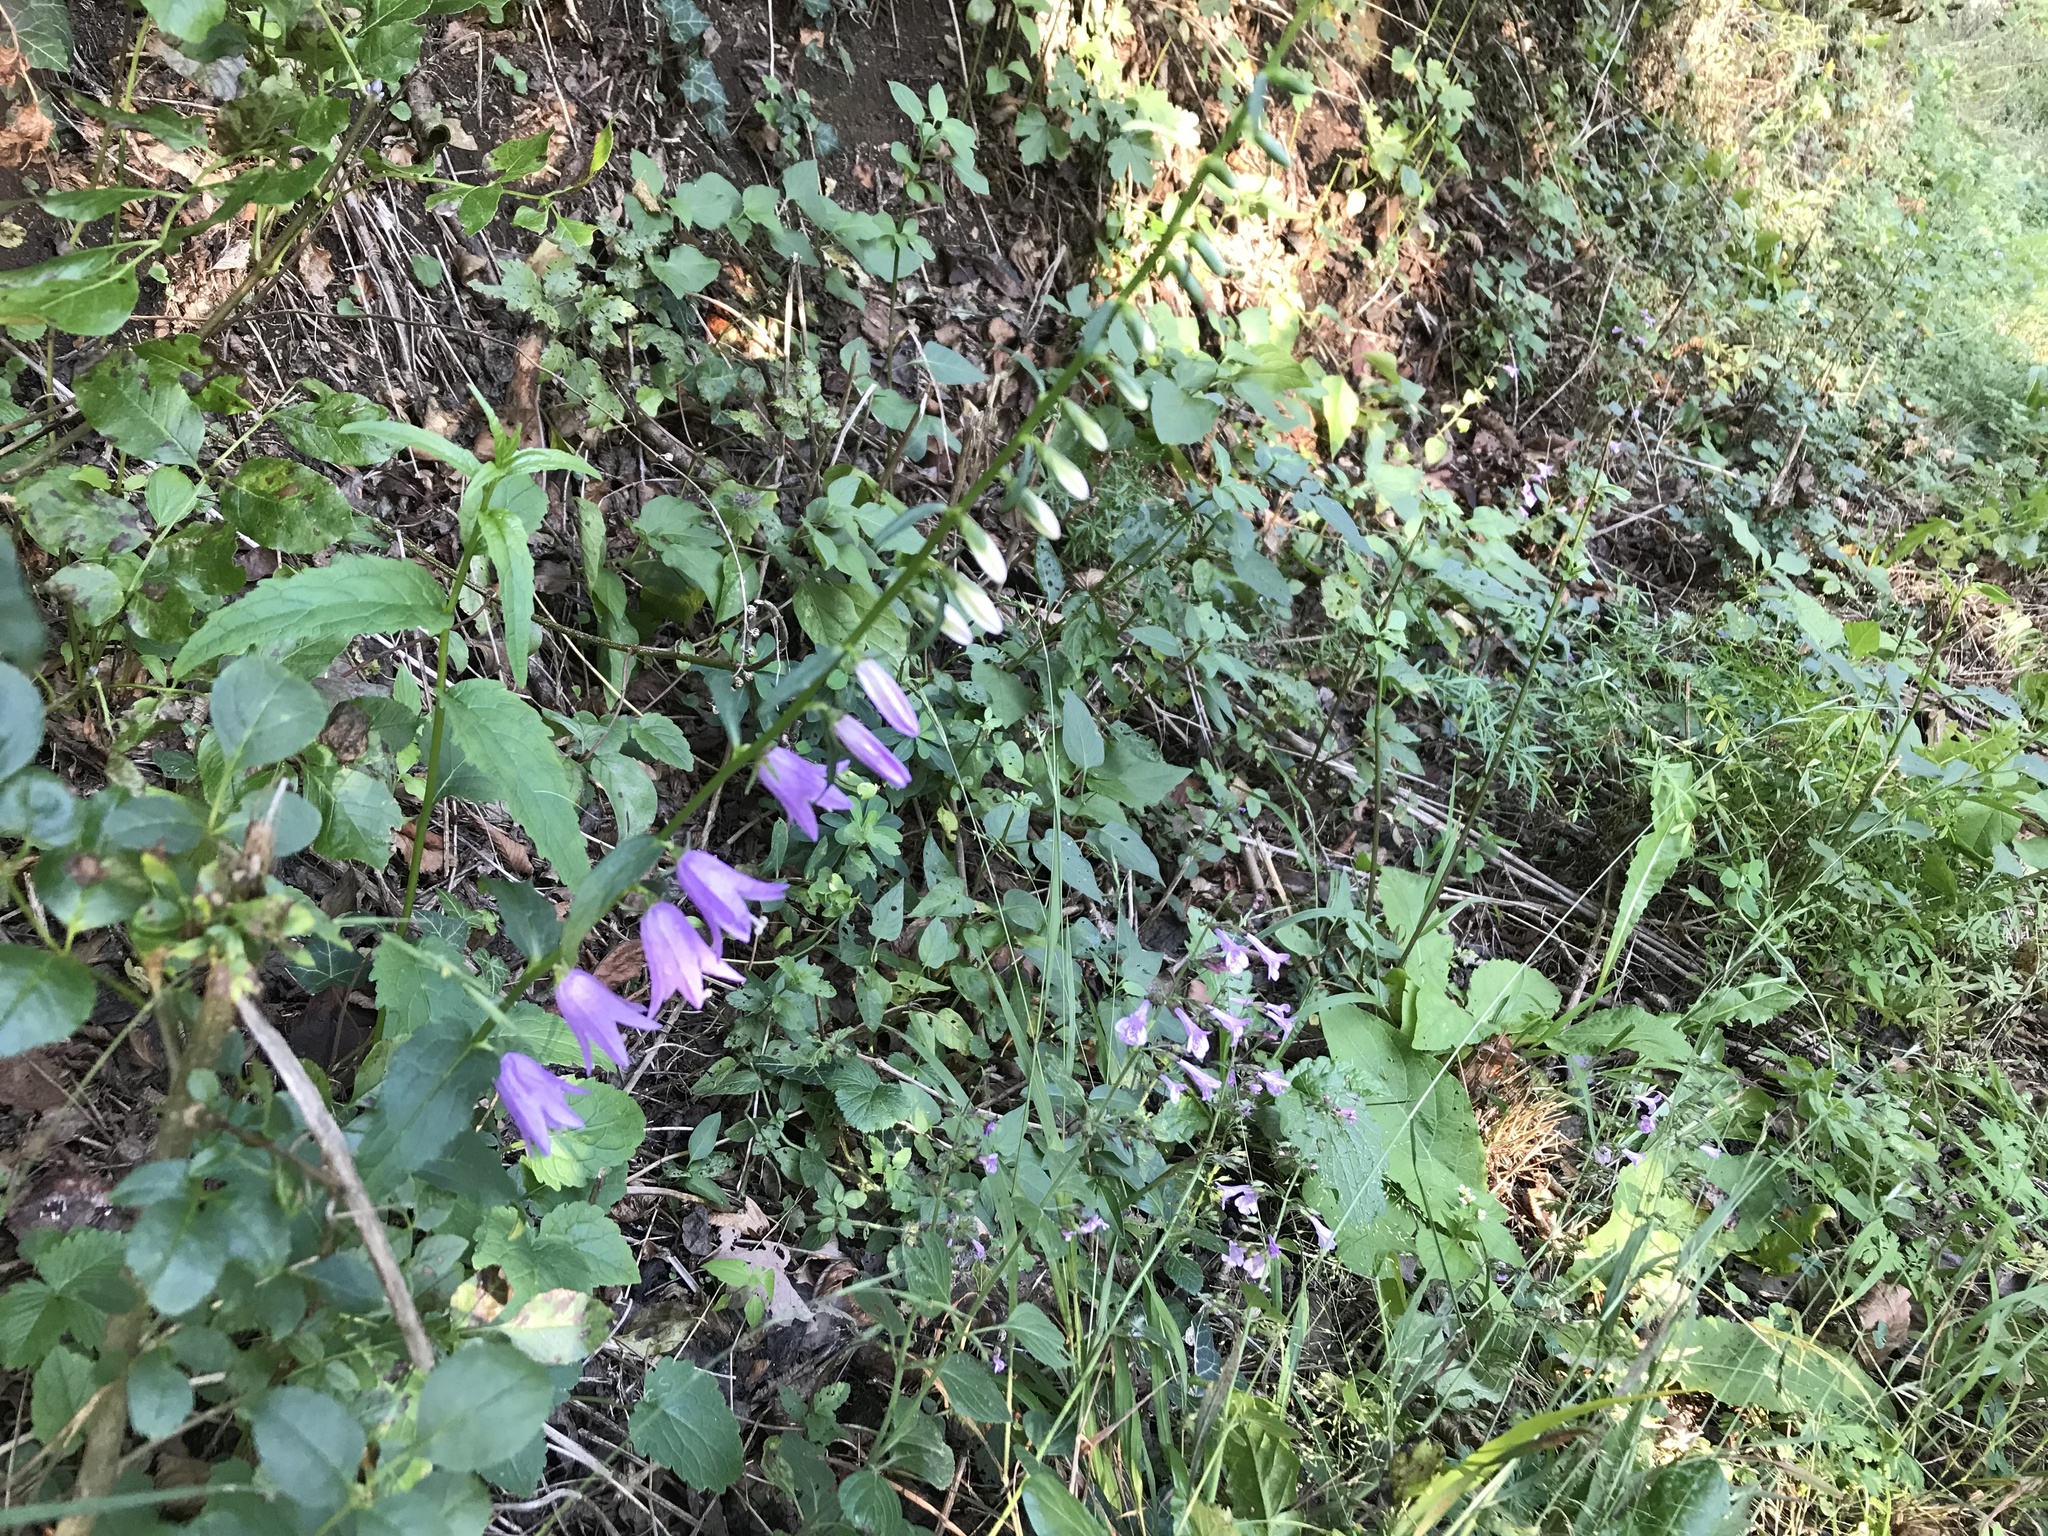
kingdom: Plantae
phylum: Tracheophyta
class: Magnoliopsida
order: Asterales
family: Campanulaceae
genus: Campanula
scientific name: Campanula rapunculoides
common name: Creeping bellflower
